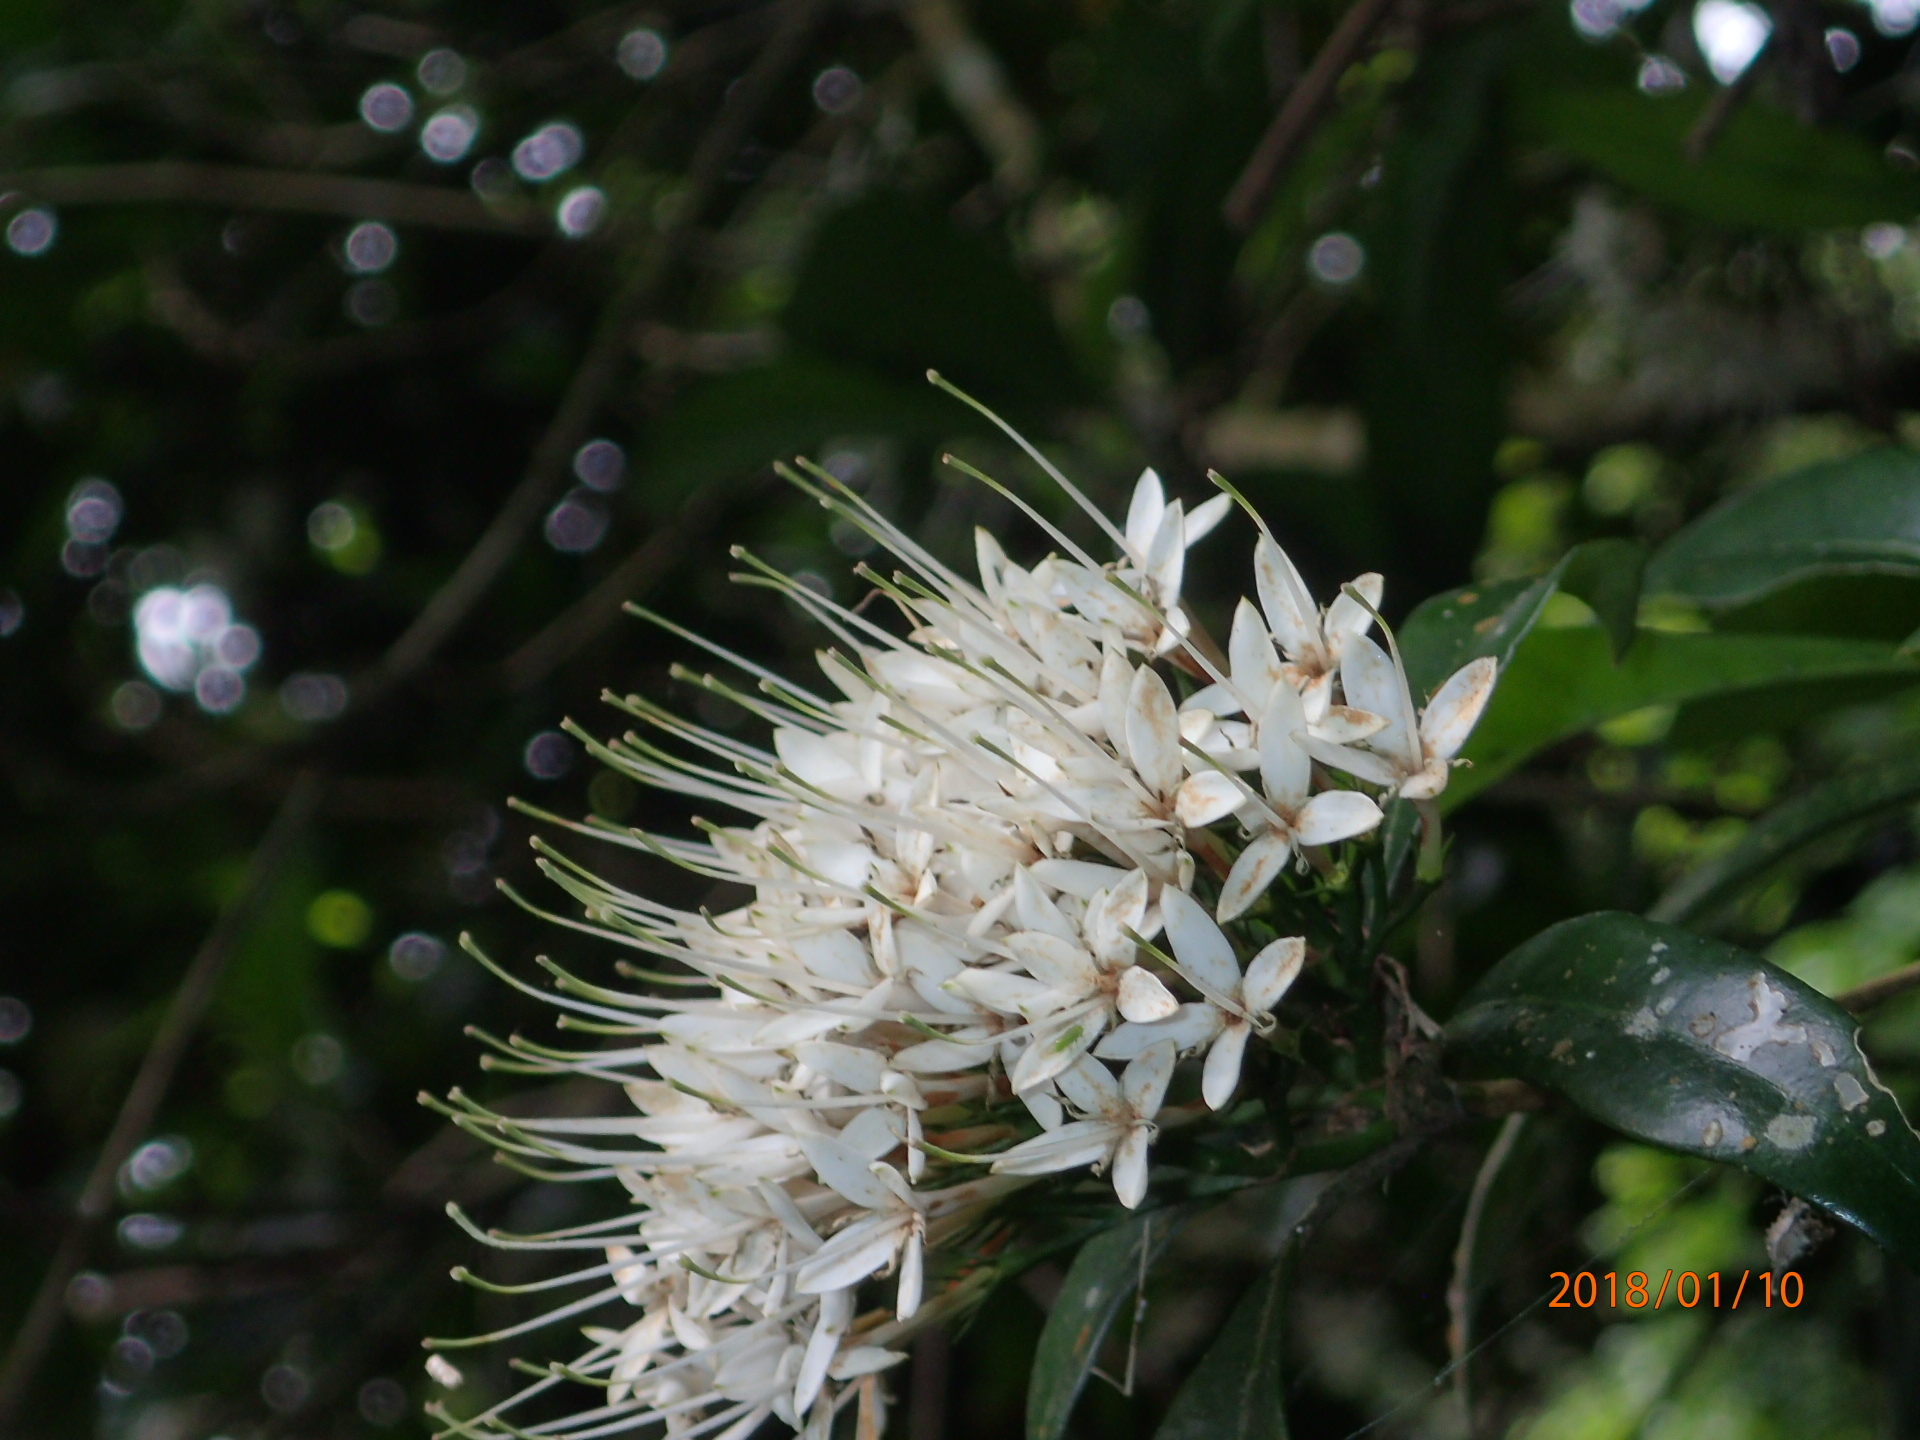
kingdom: Plantae
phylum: Tracheophyta
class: Magnoliopsida
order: Gentianales
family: Rubiaceae
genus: Pavetta
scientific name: Pavetta capensis
